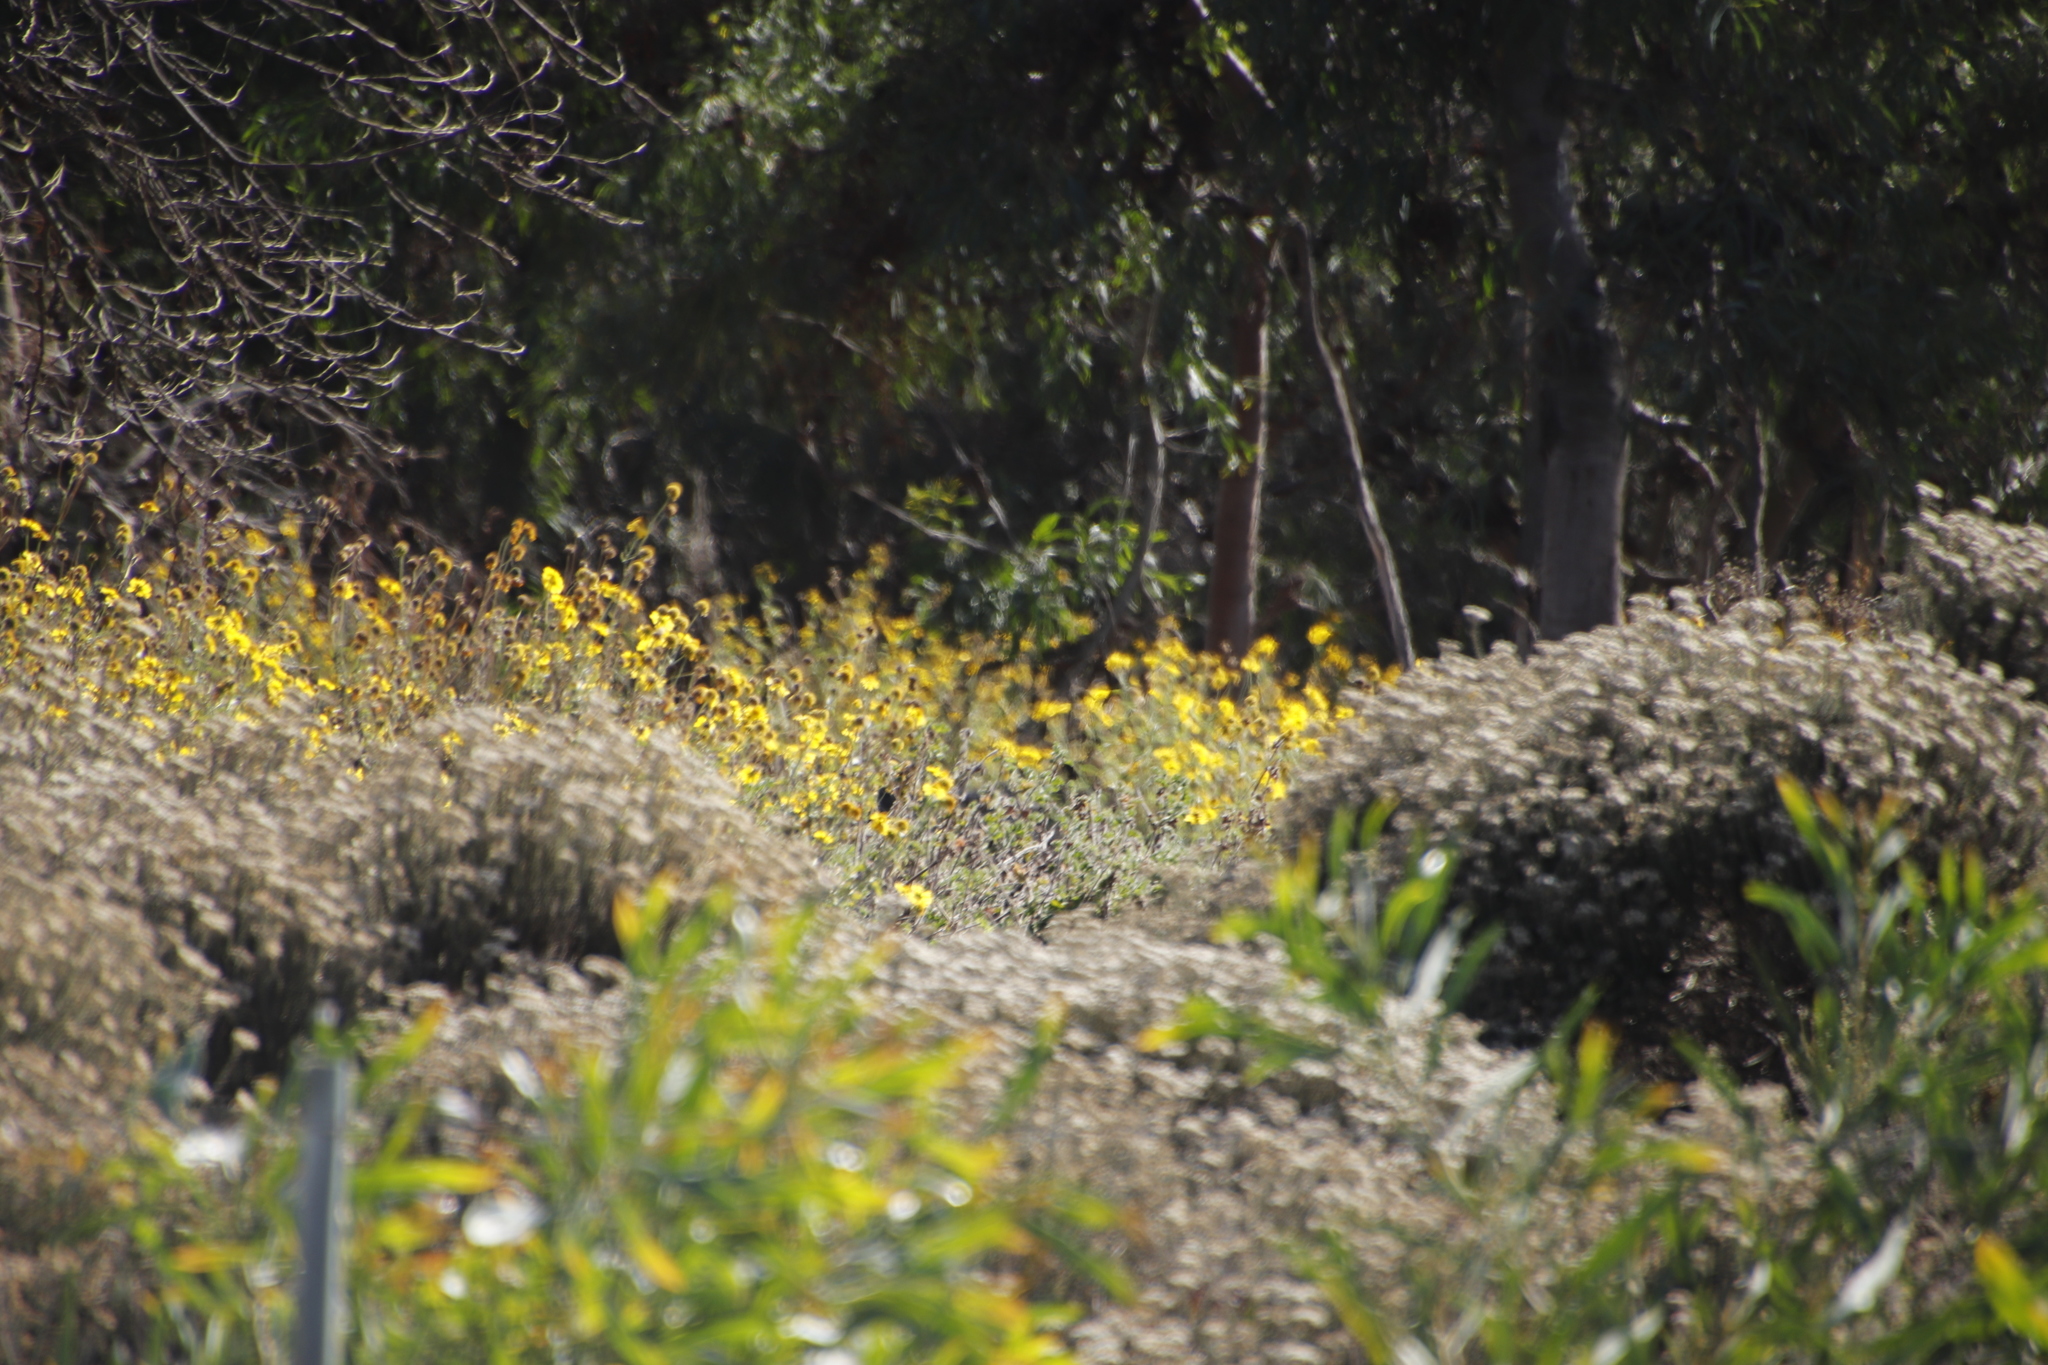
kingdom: Plantae
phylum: Tracheophyta
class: Magnoliopsida
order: Asterales
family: Asteraceae
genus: Verbesina
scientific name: Verbesina encelioides
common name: Golden crownbeard
